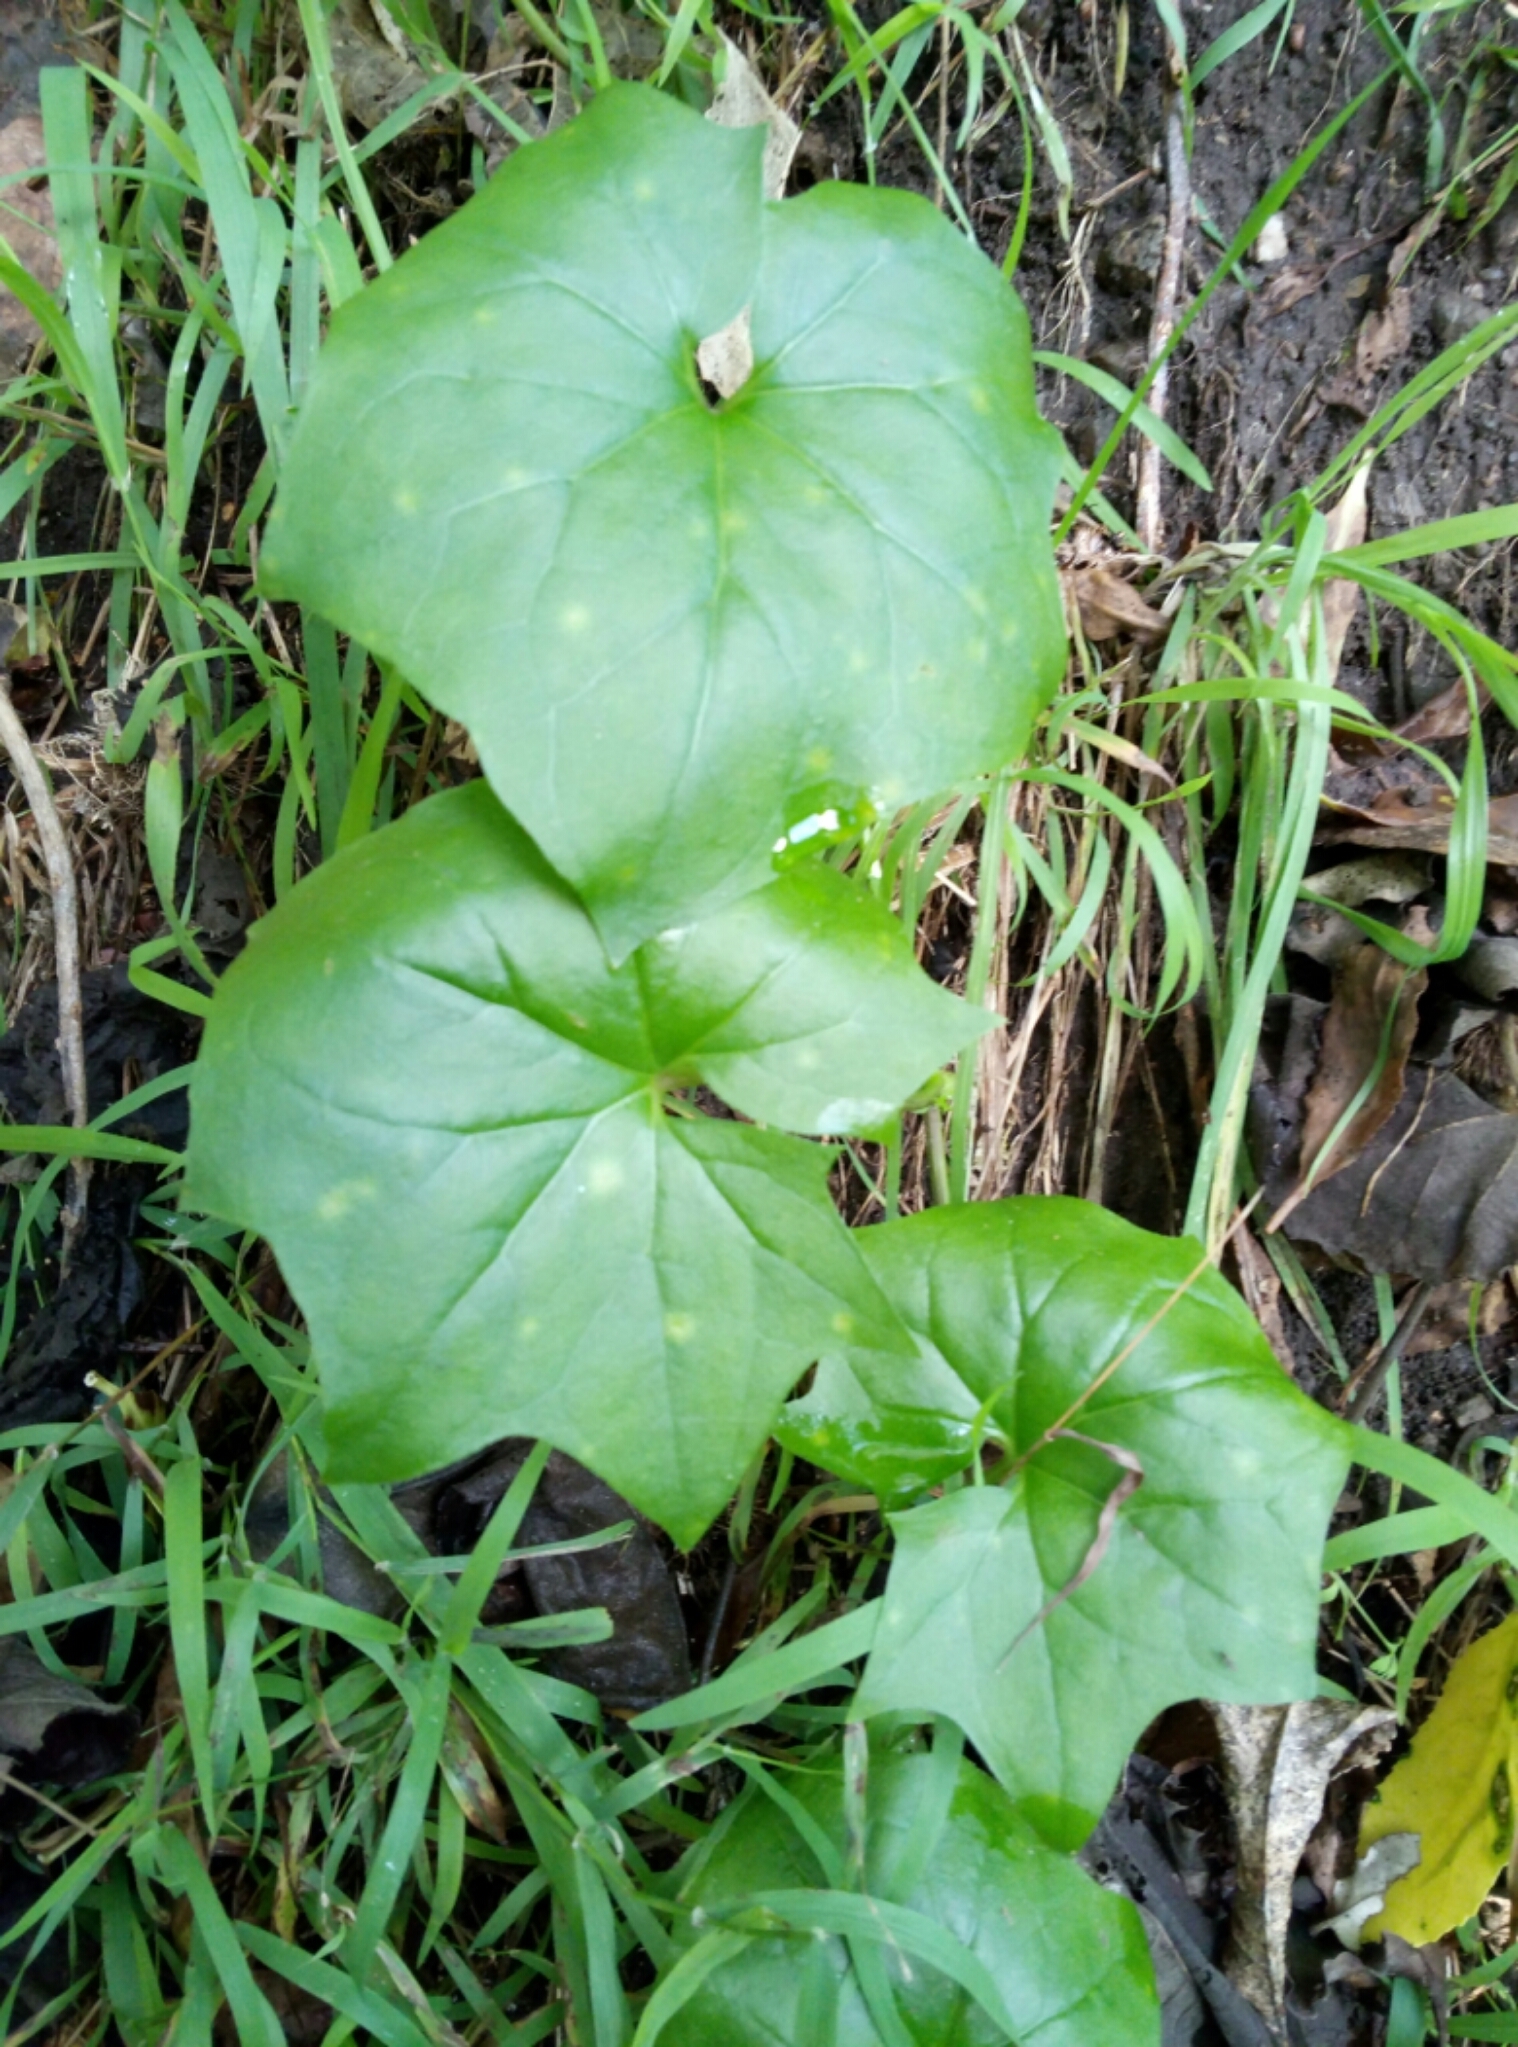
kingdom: Plantae
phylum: Tracheophyta
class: Magnoliopsida
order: Asterales
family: Asteraceae
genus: Delairea
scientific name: Delairea odorata
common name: Cape-ivy
